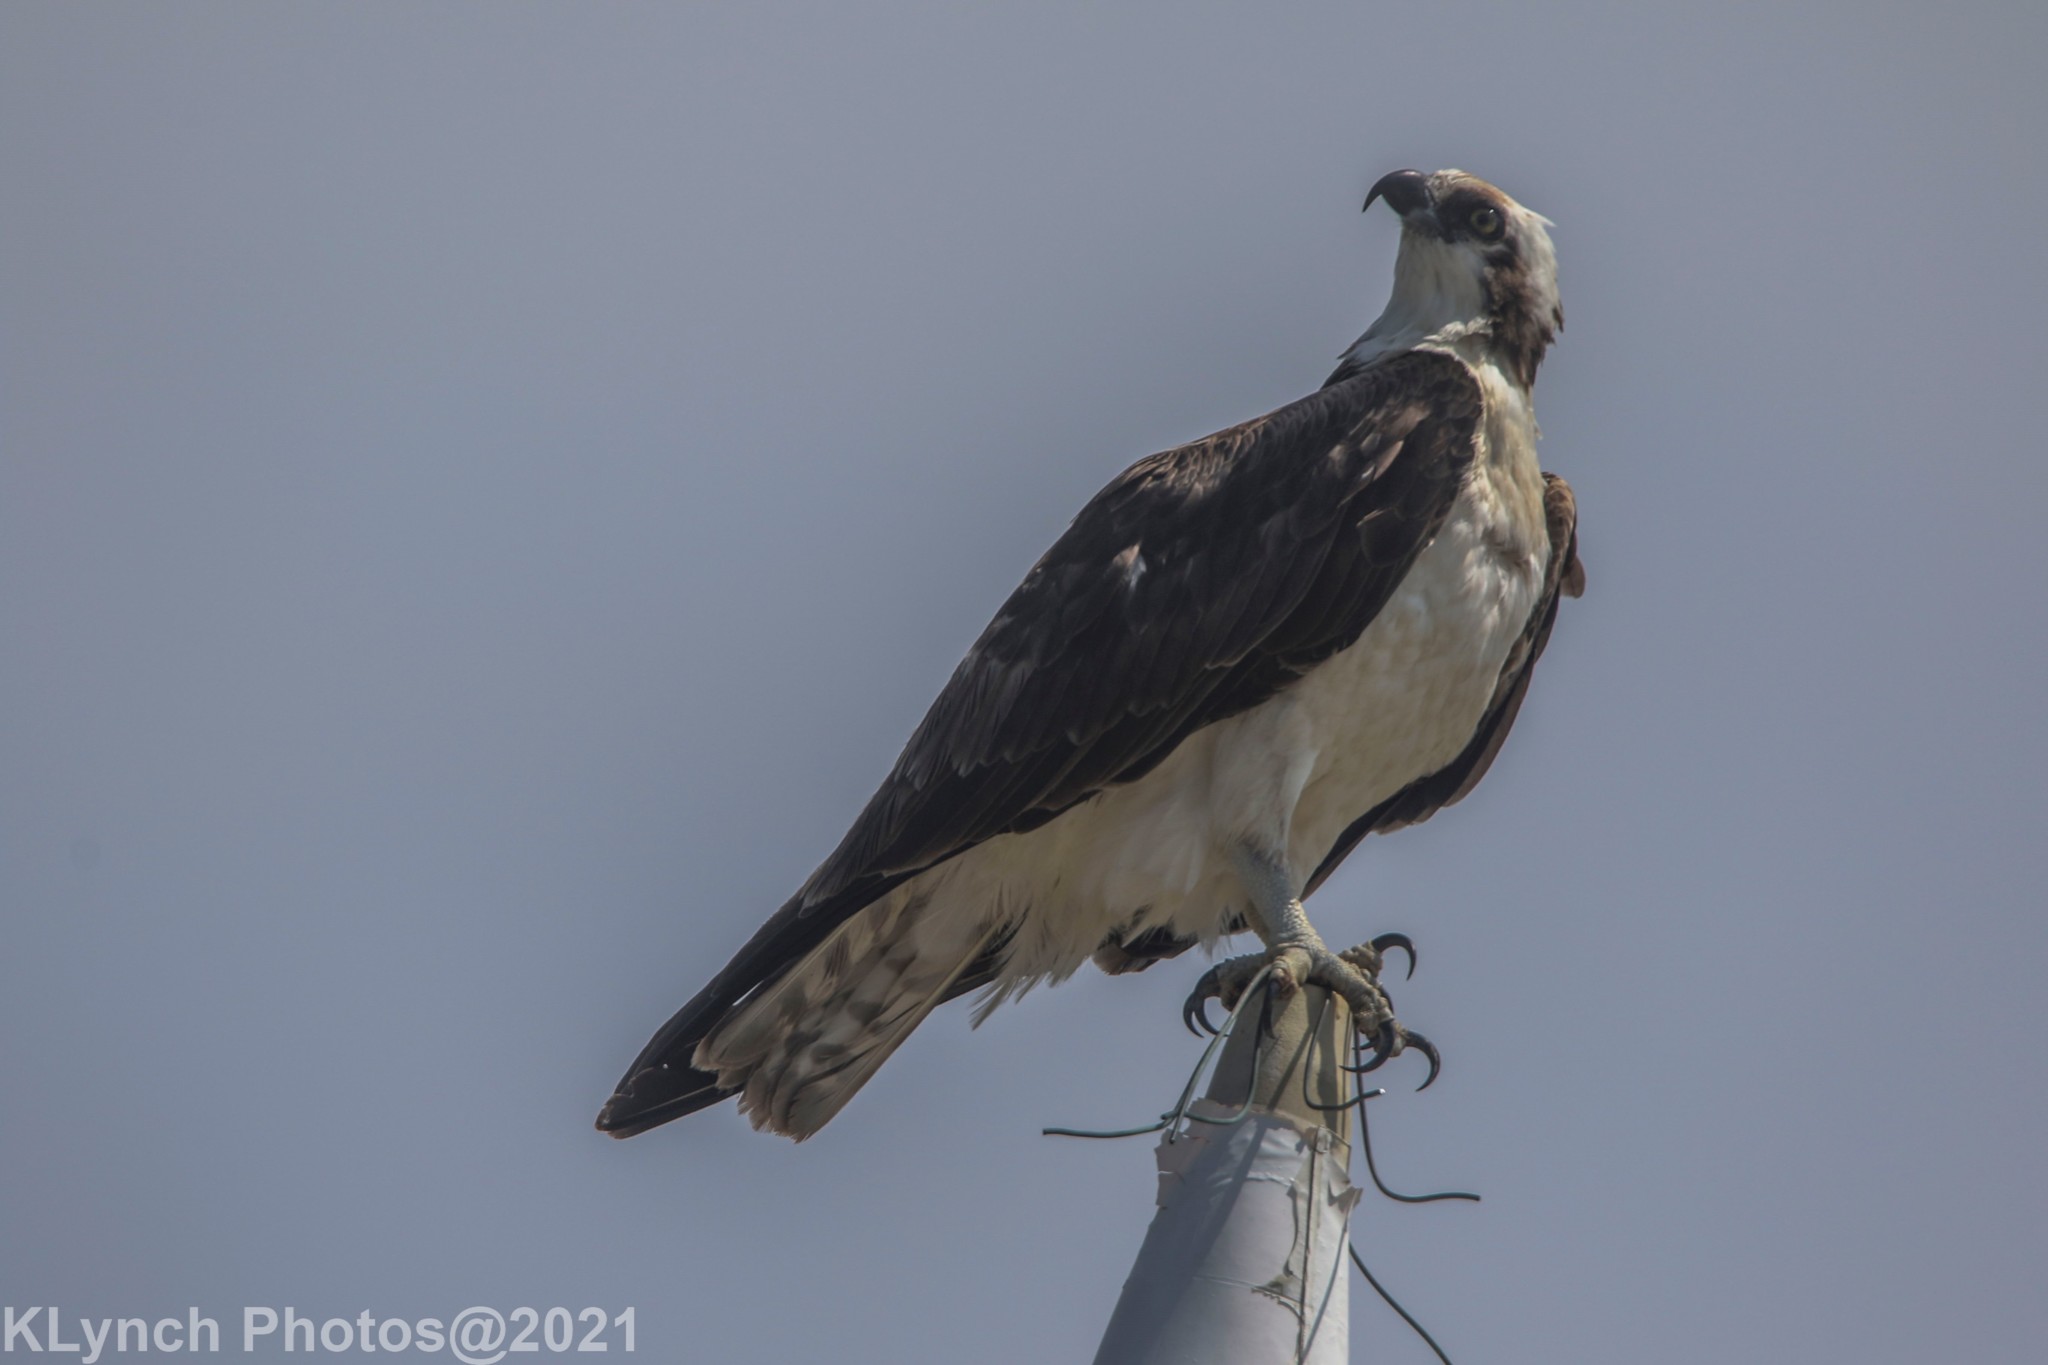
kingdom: Animalia
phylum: Chordata
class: Aves
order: Accipitriformes
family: Pandionidae
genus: Pandion
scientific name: Pandion haliaetus
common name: Osprey
